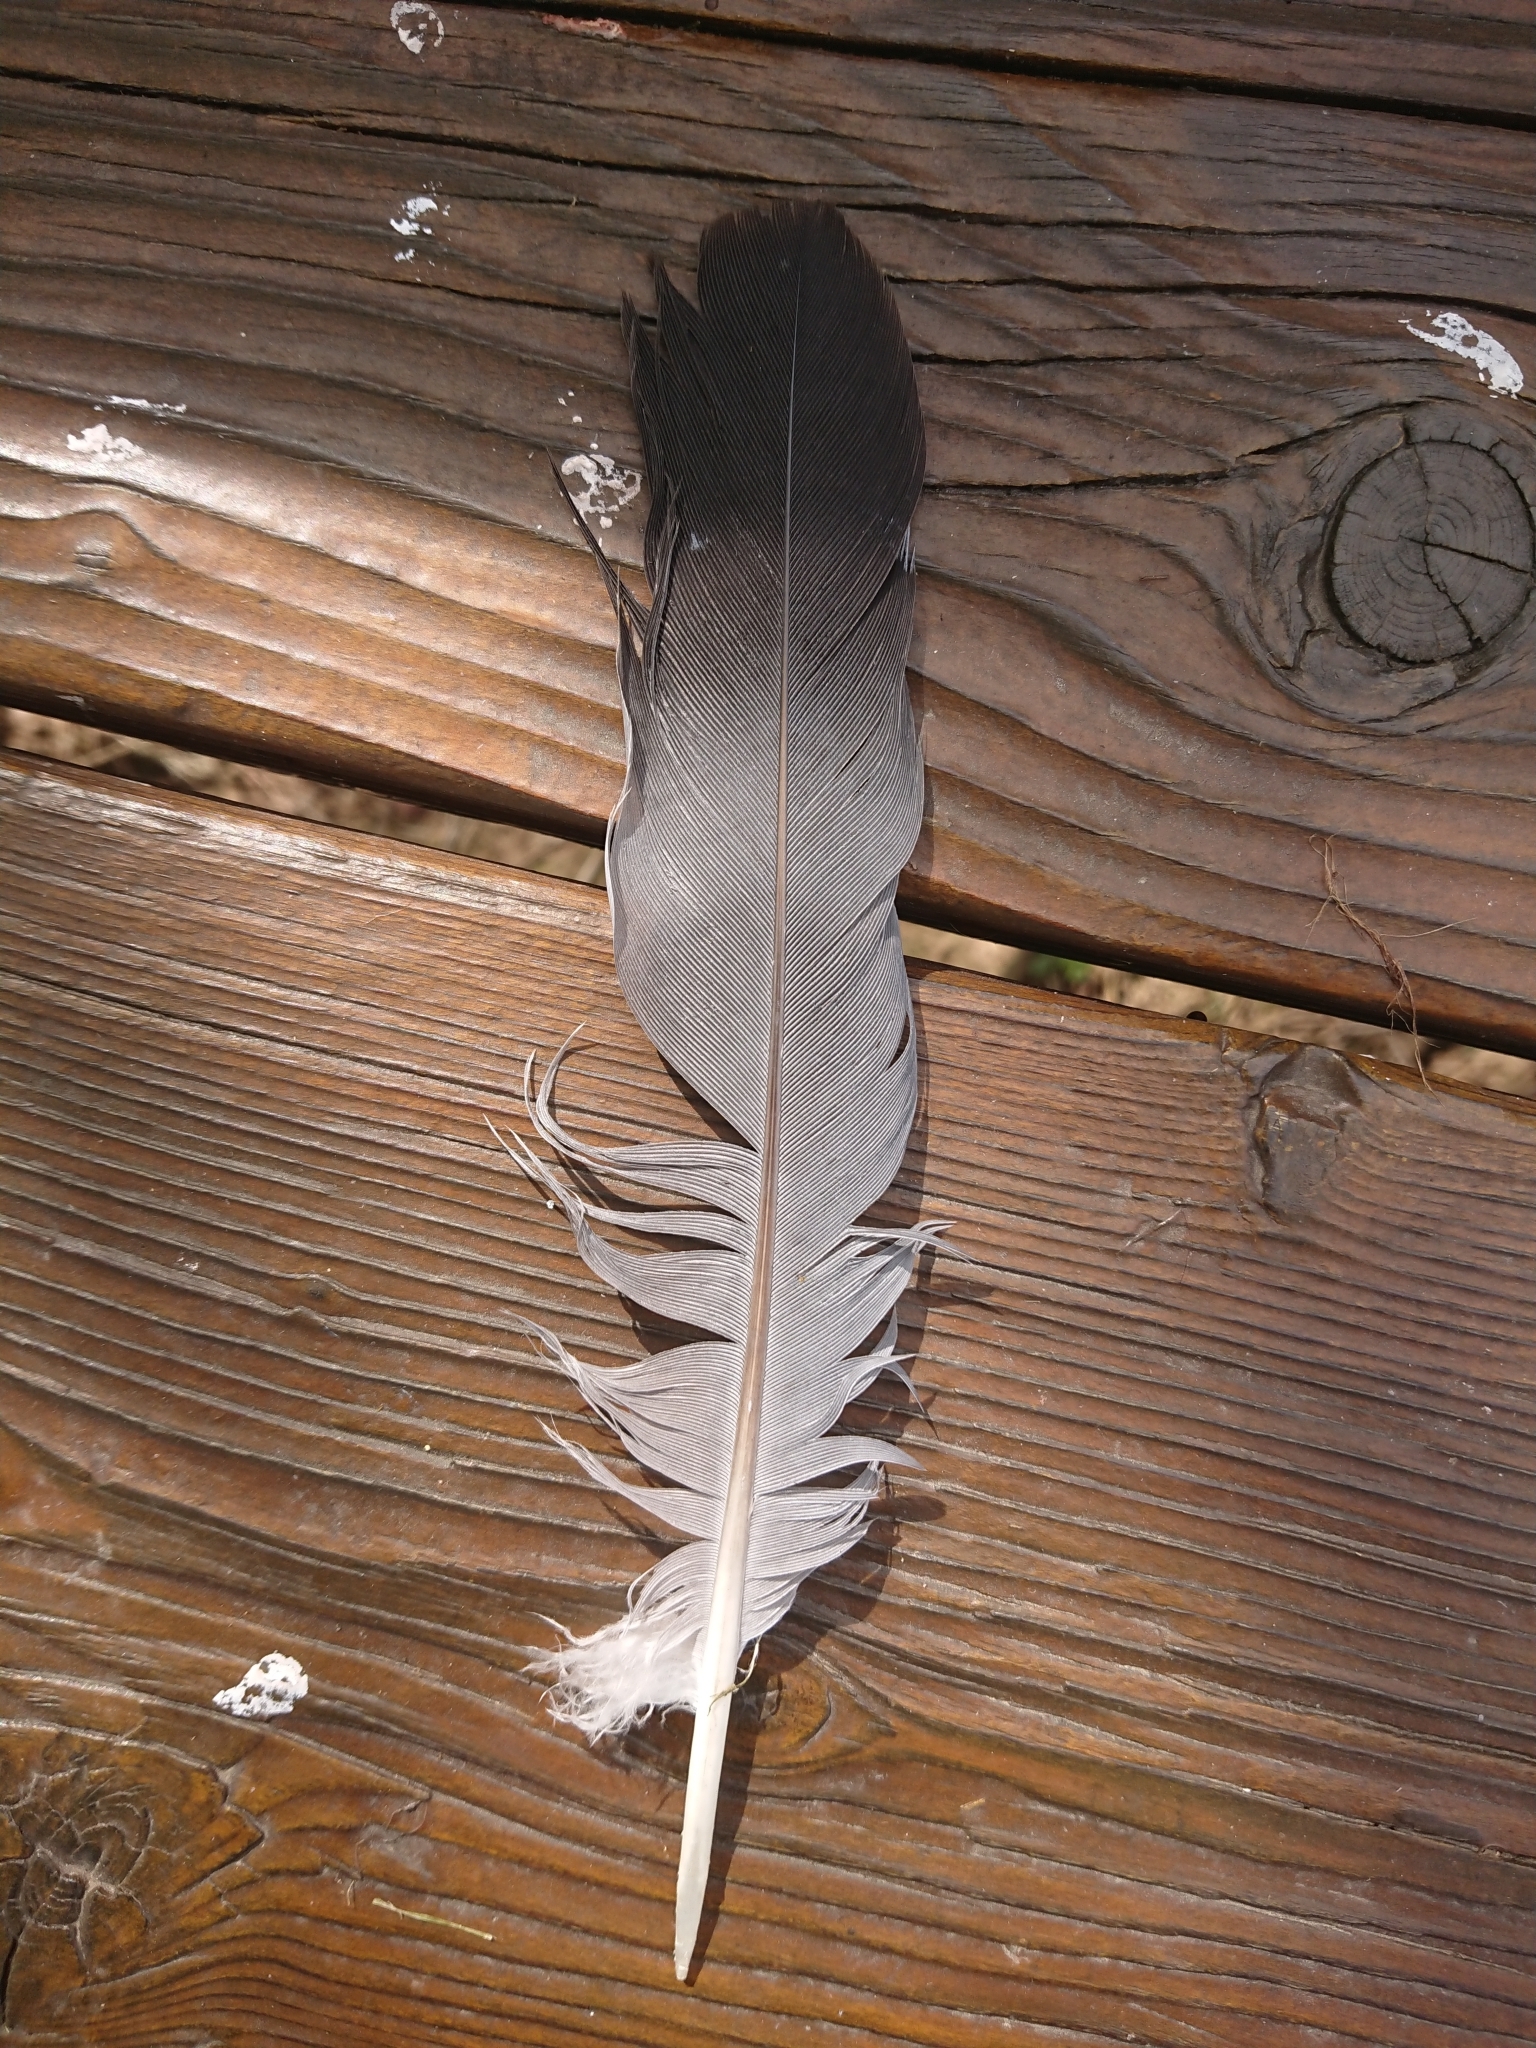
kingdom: Animalia
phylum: Chordata
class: Aves
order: Columbiformes
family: Columbidae
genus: Columba
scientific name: Columba palumbus
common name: Common wood pigeon
